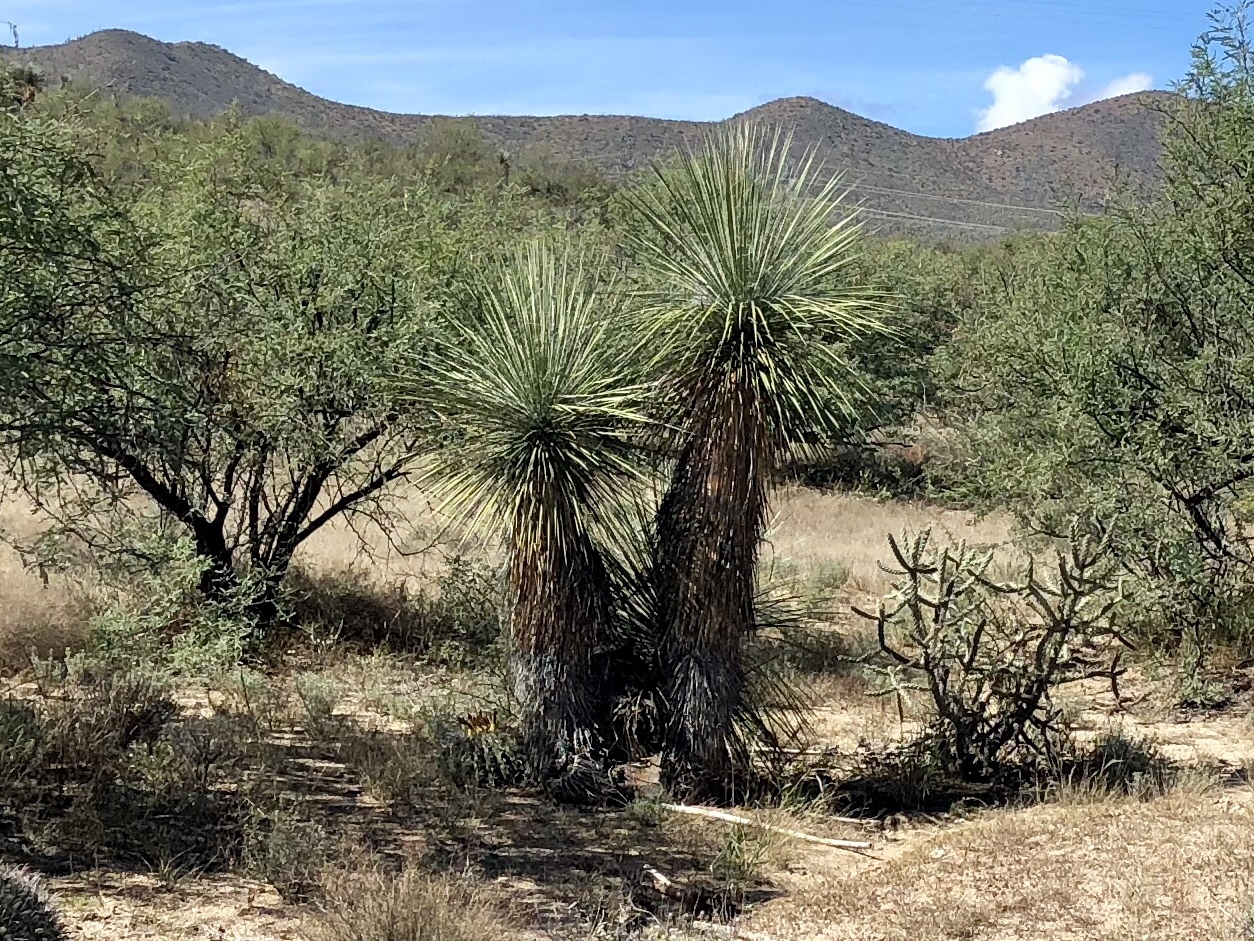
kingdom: Plantae
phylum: Tracheophyta
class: Liliopsida
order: Asparagales
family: Asparagaceae
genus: Yucca
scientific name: Yucca elata
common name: Palmella
